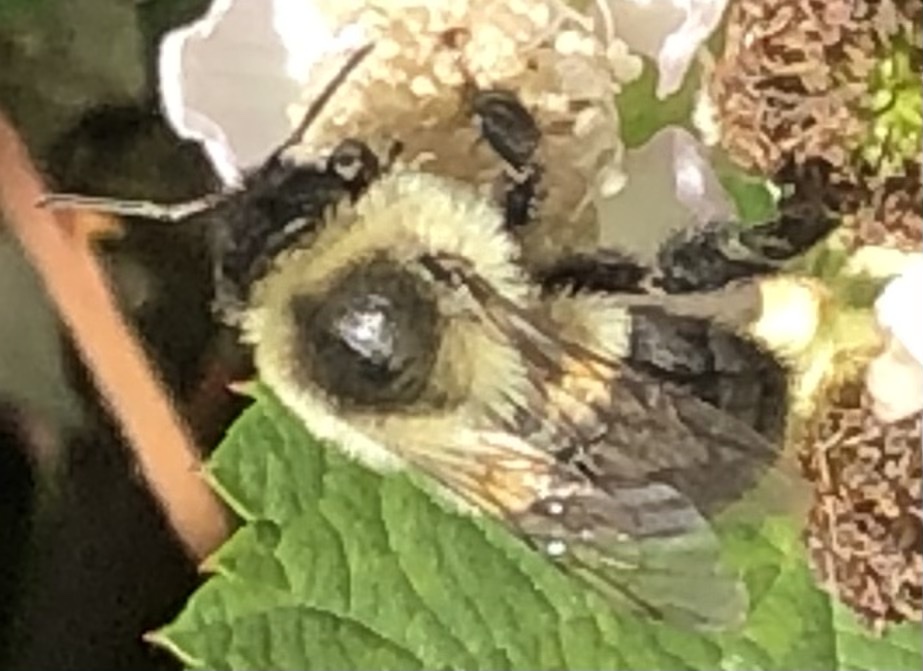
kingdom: Animalia
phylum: Arthropoda
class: Insecta
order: Hymenoptera
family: Apidae
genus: Bombus
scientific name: Bombus impatiens
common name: Common eastern bumble bee
